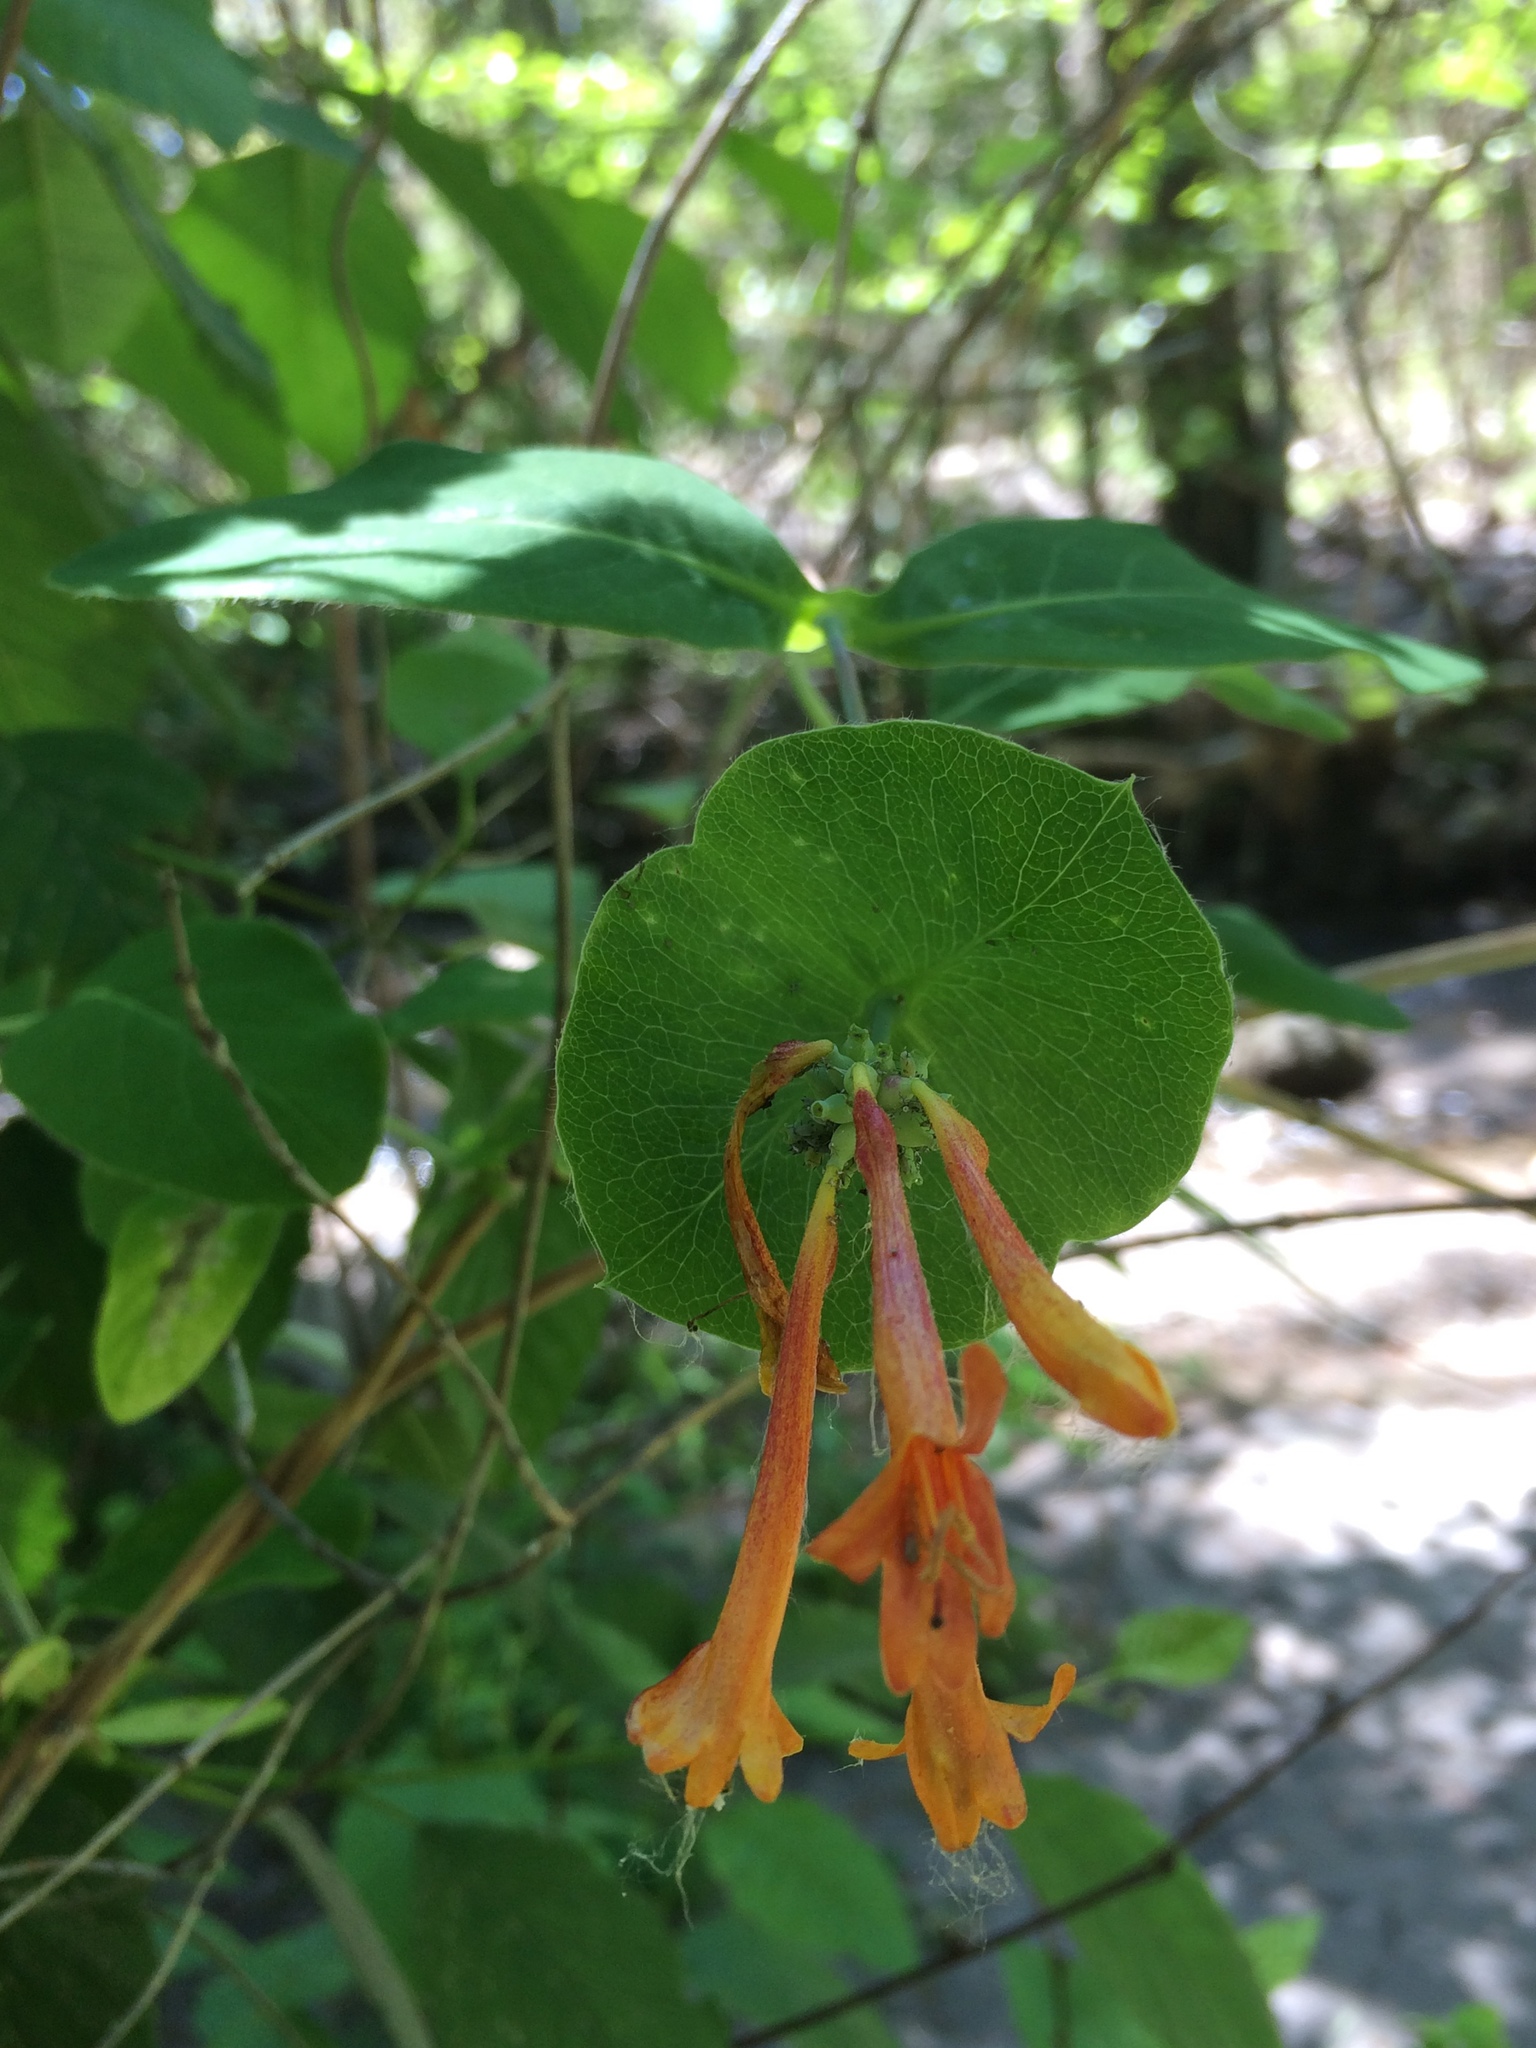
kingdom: Plantae
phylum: Tracheophyta
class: Magnoliopsida
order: Dipsacales
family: Caprifoliaceae
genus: Lonicera
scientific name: Lonicera ciliosa
